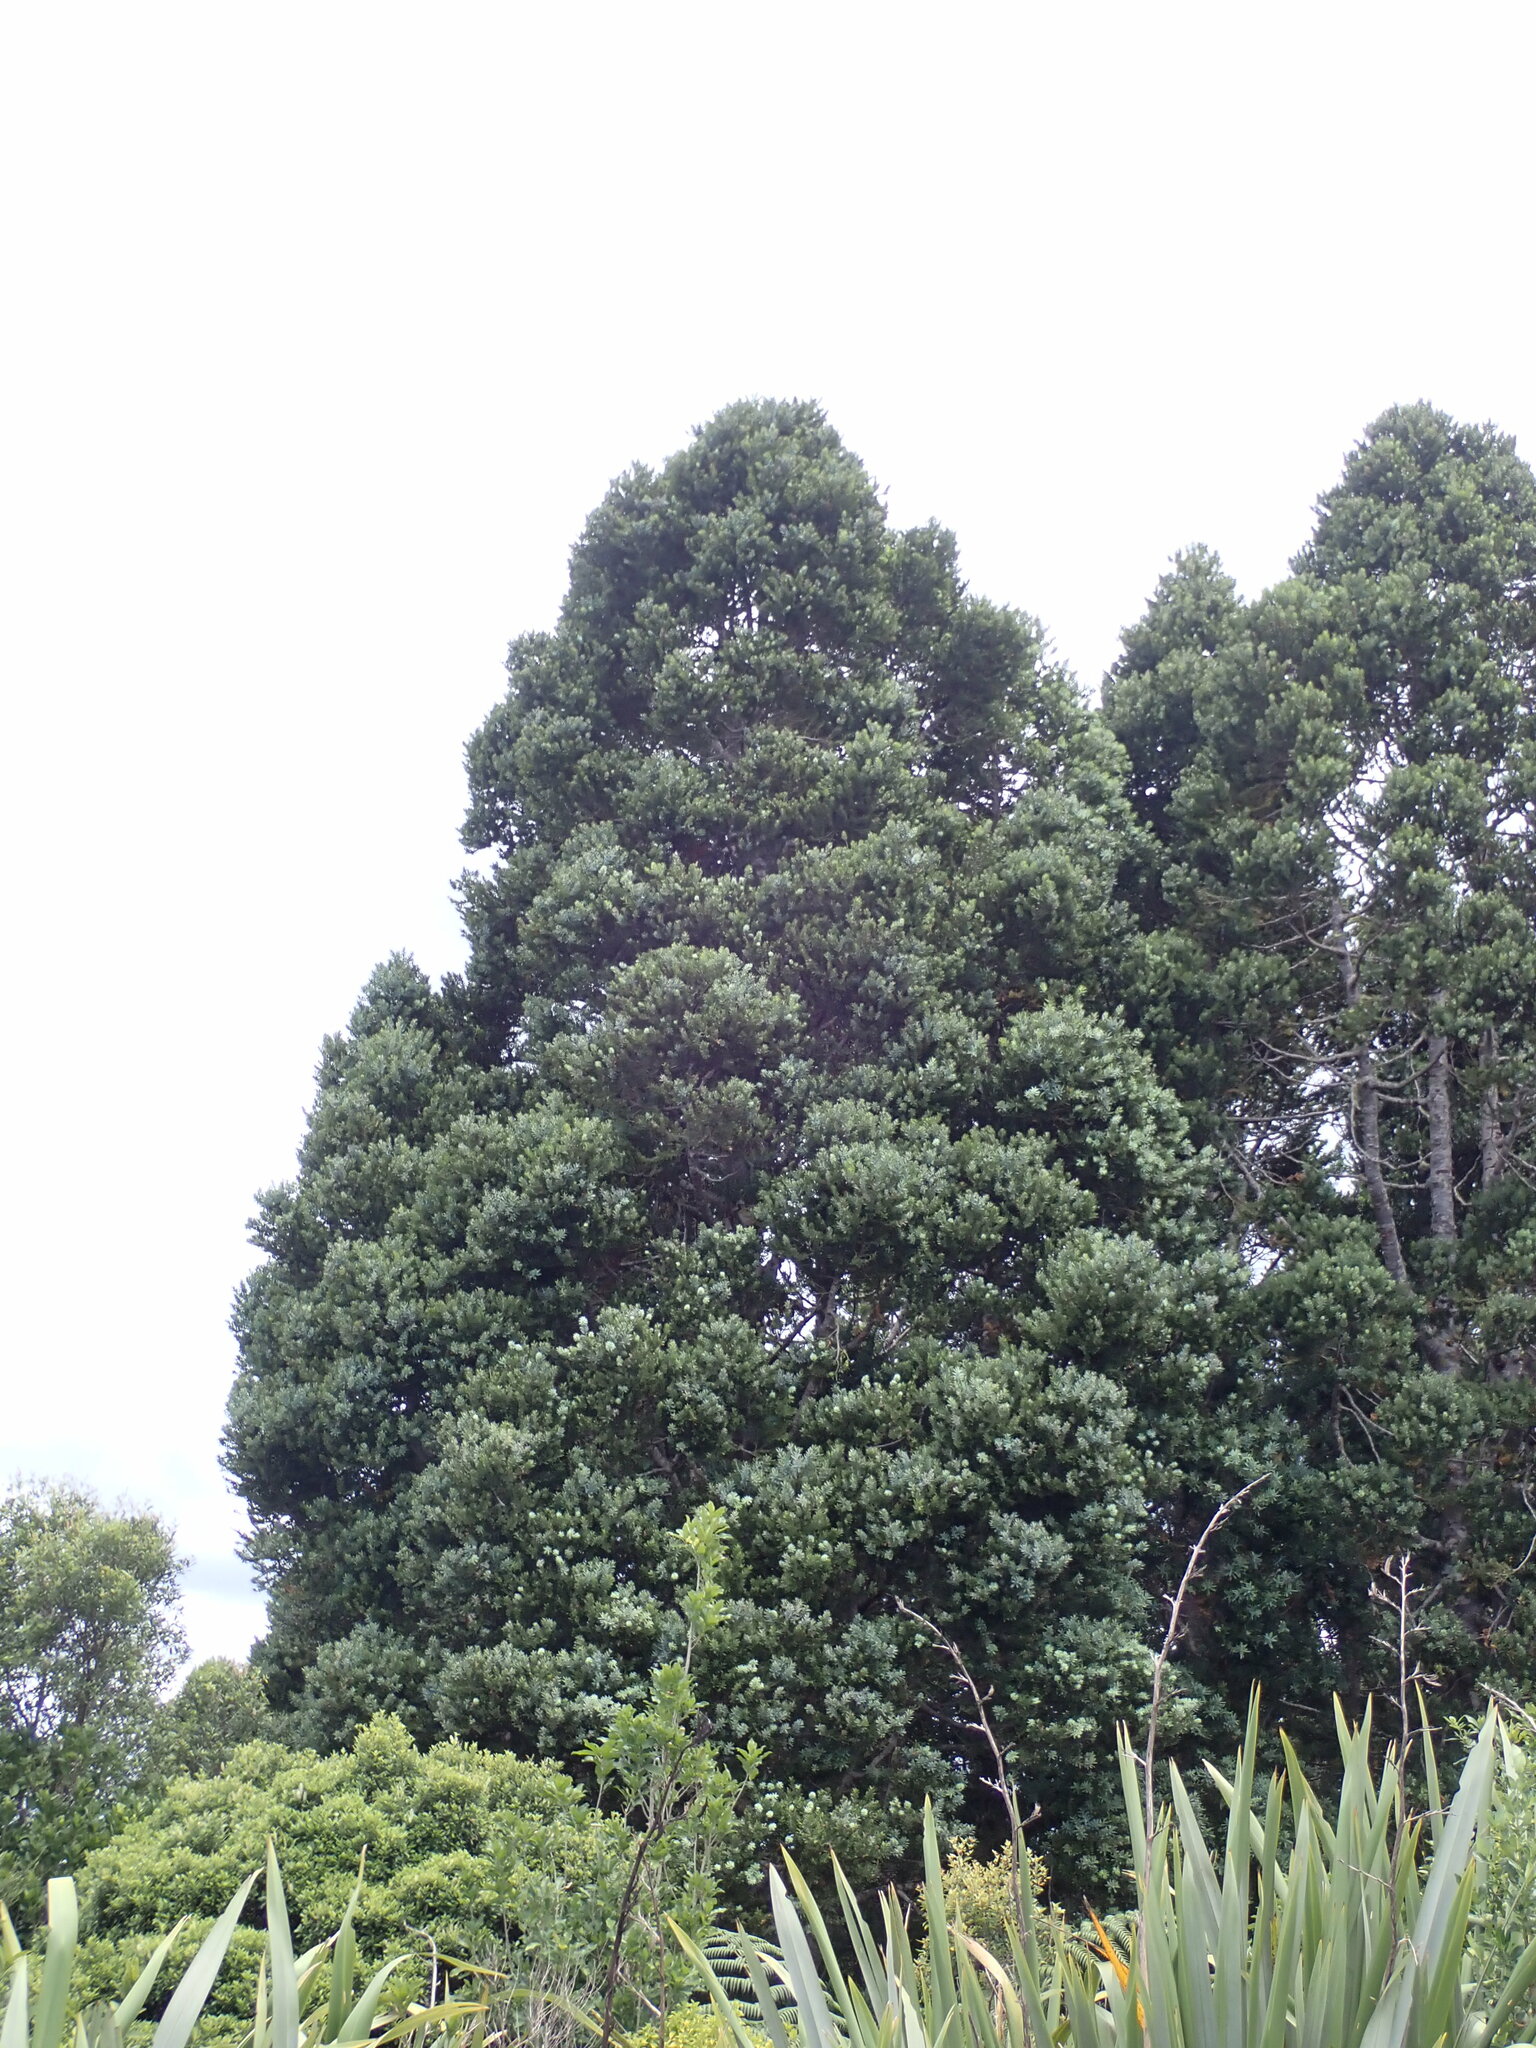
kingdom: Plantae
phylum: Tracheophyta
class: Pinopsida
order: Pinales
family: Araucariaceae
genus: Agathis
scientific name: Agathis australis
